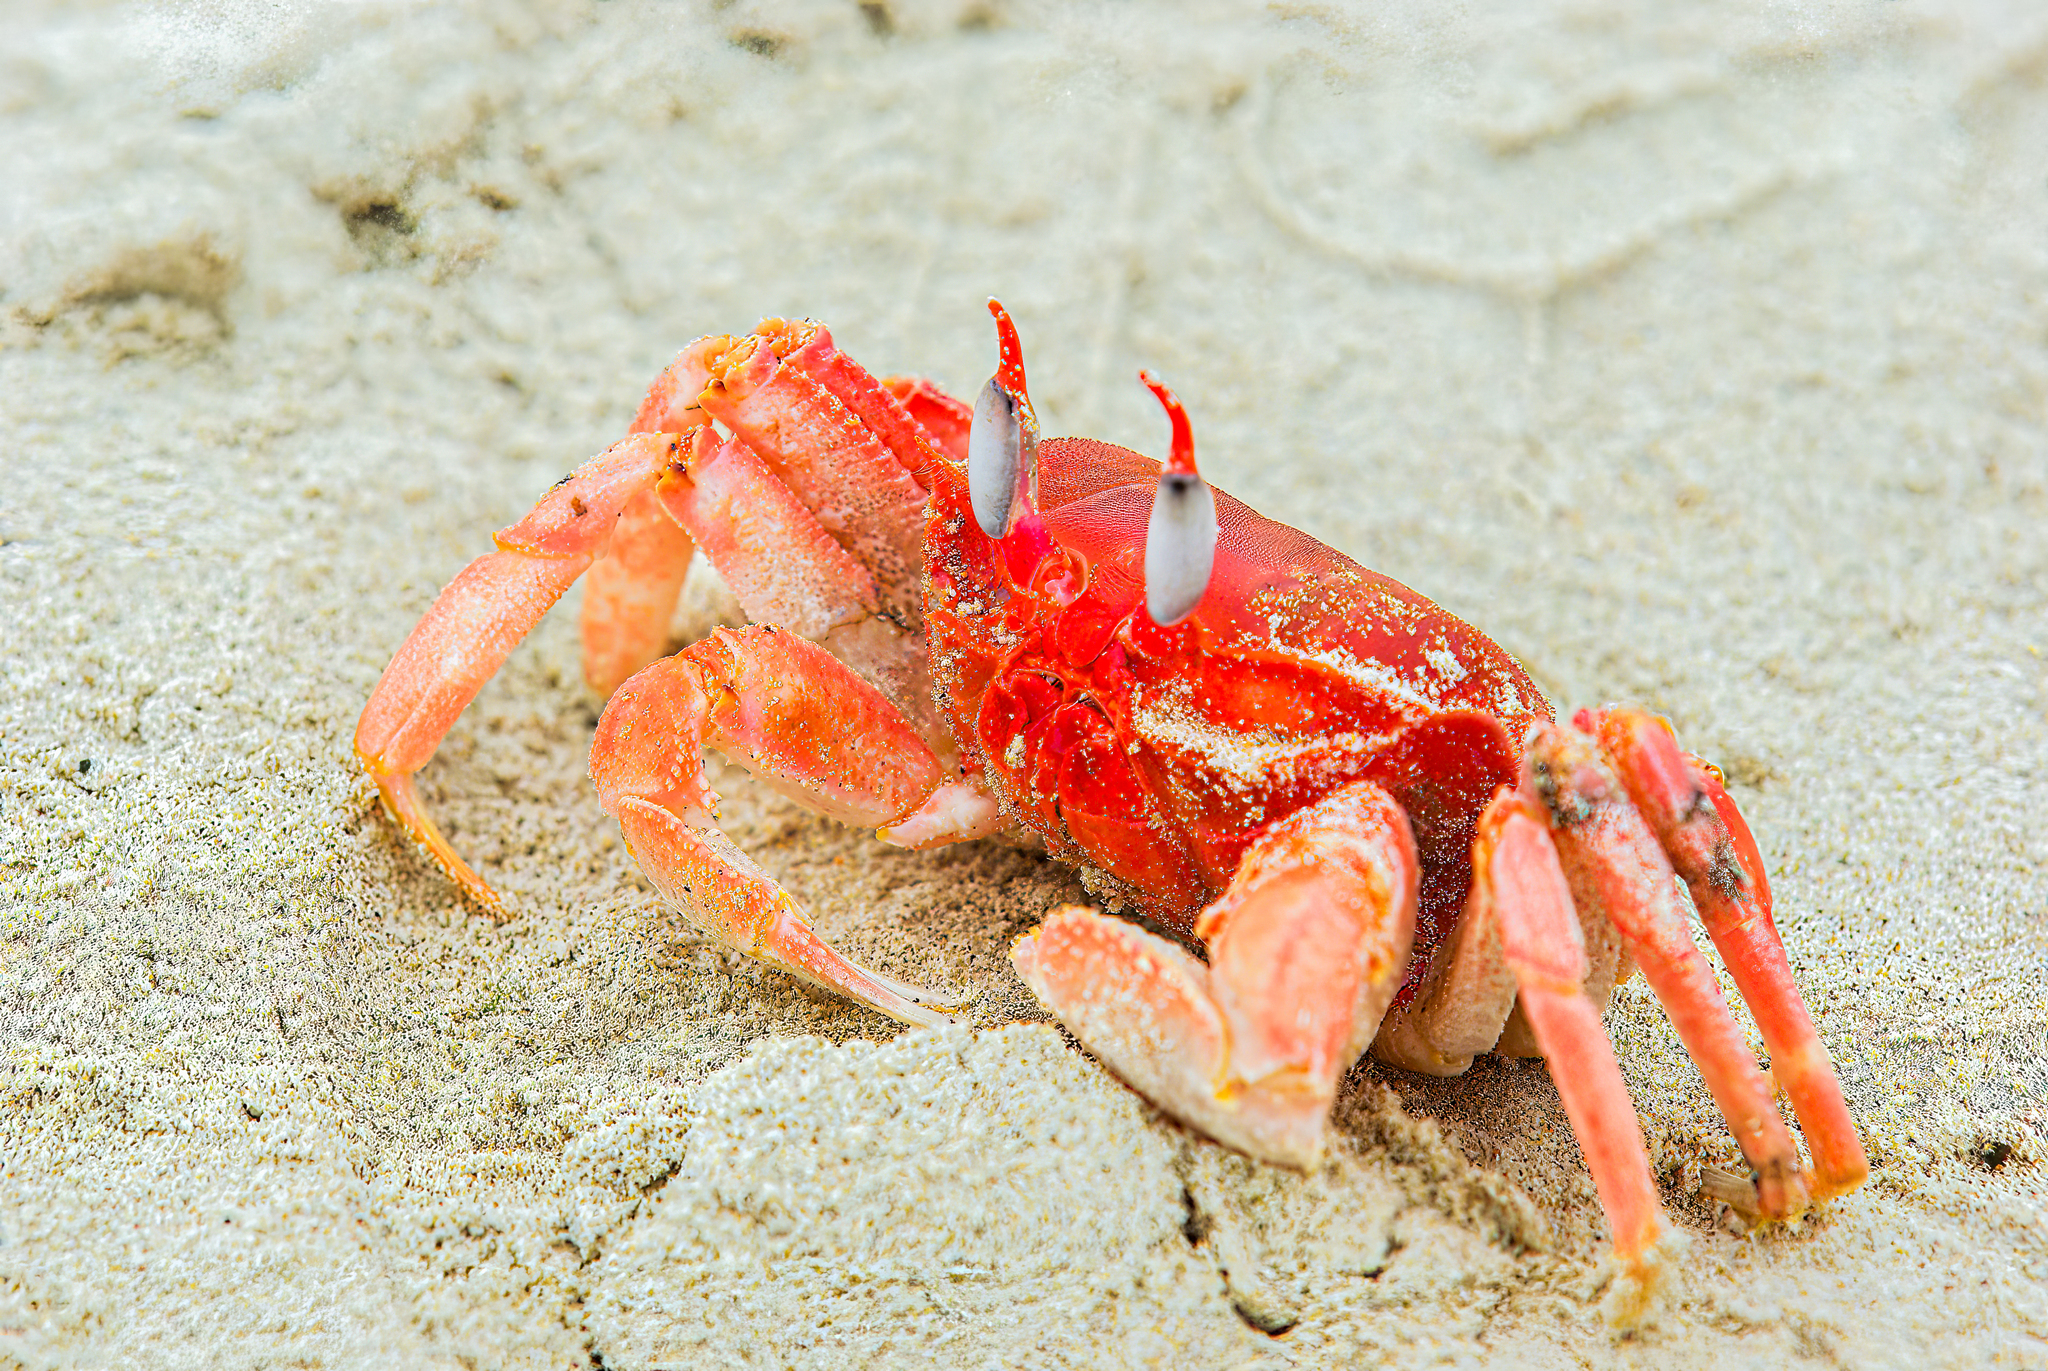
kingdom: Animalia
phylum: Arthropoda
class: Malacostraca
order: Decapoda
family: Ocypodidae
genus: Ocypode
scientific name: Ocypode gaudichaudii
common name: Pacific ghost crab
